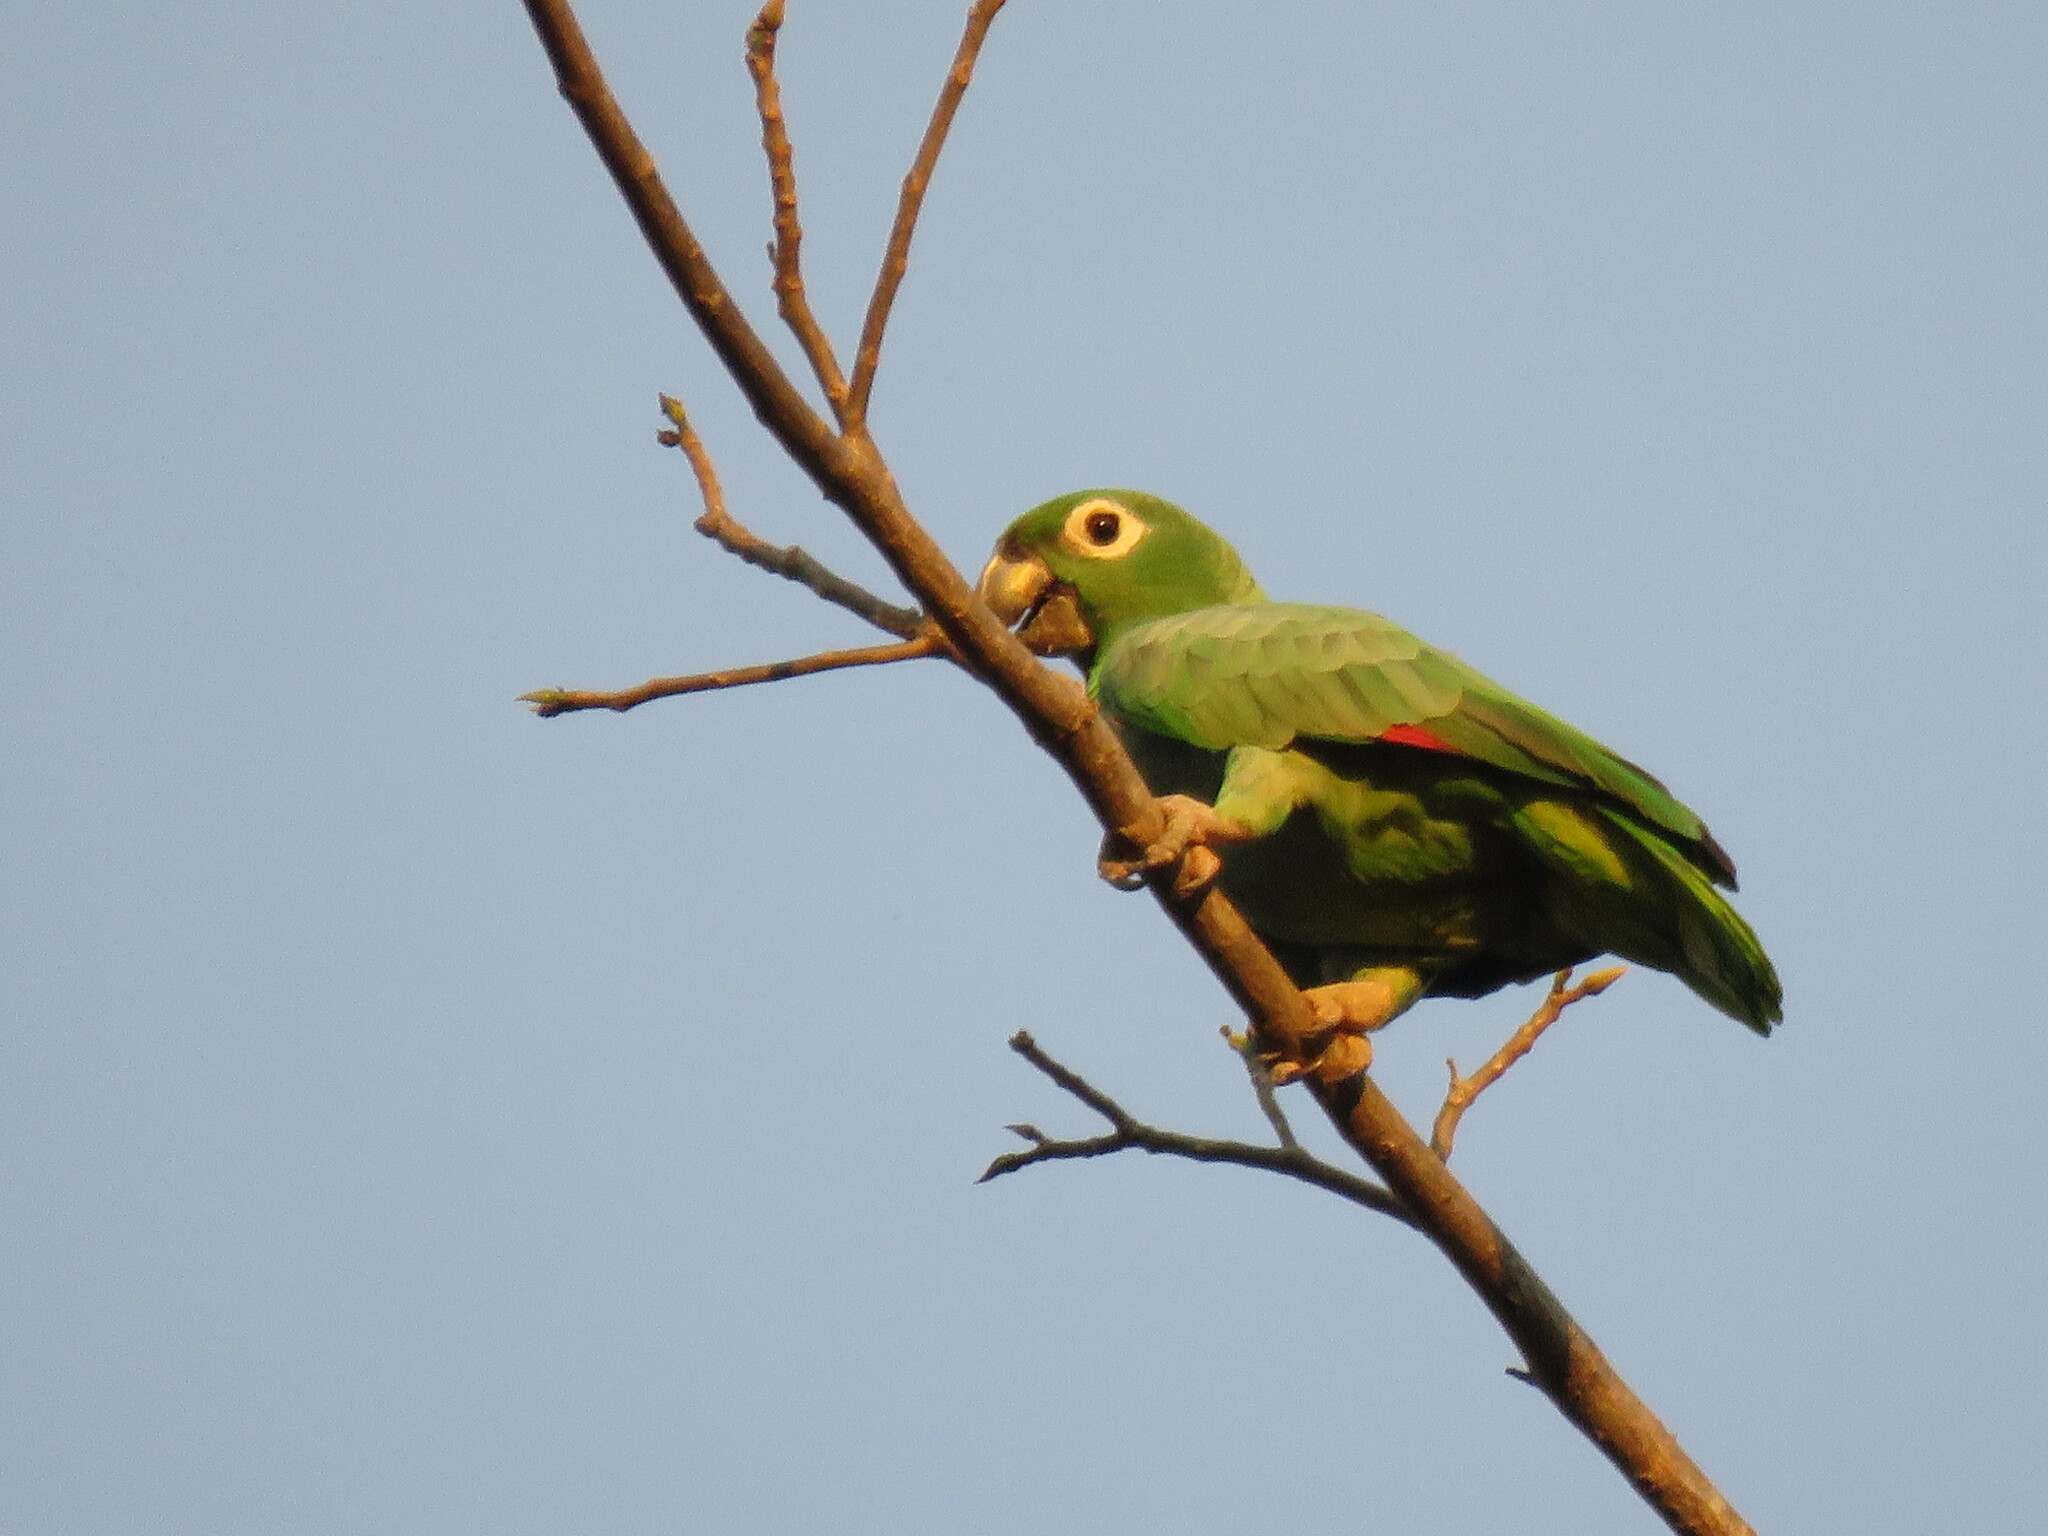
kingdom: Animalia
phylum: Chordata
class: Aves
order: Psittaciformes
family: Psittacidae
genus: Amazona
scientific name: Amazona farinosa
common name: Mealy parrot
